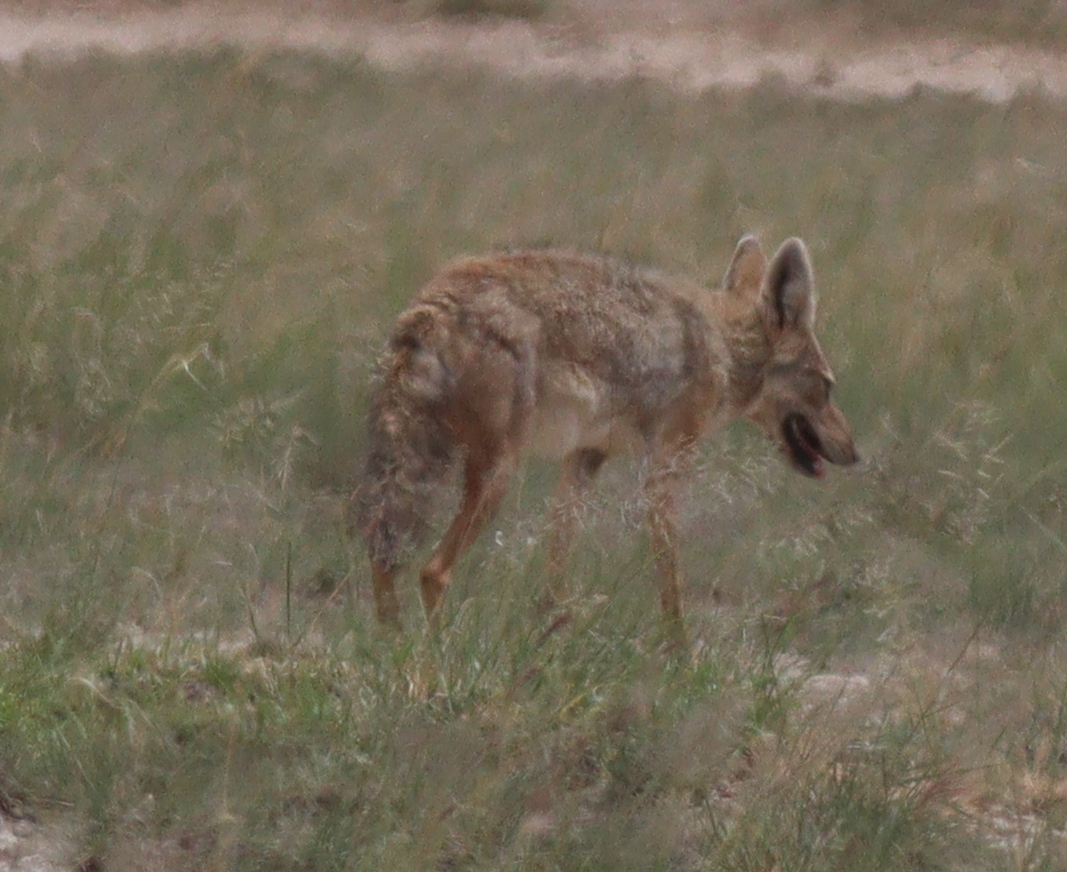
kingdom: Animalia
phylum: Chordata
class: Mammalia
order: Carnivora
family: Canidae
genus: Canis
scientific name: Canis lupaster
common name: African golden wolf
